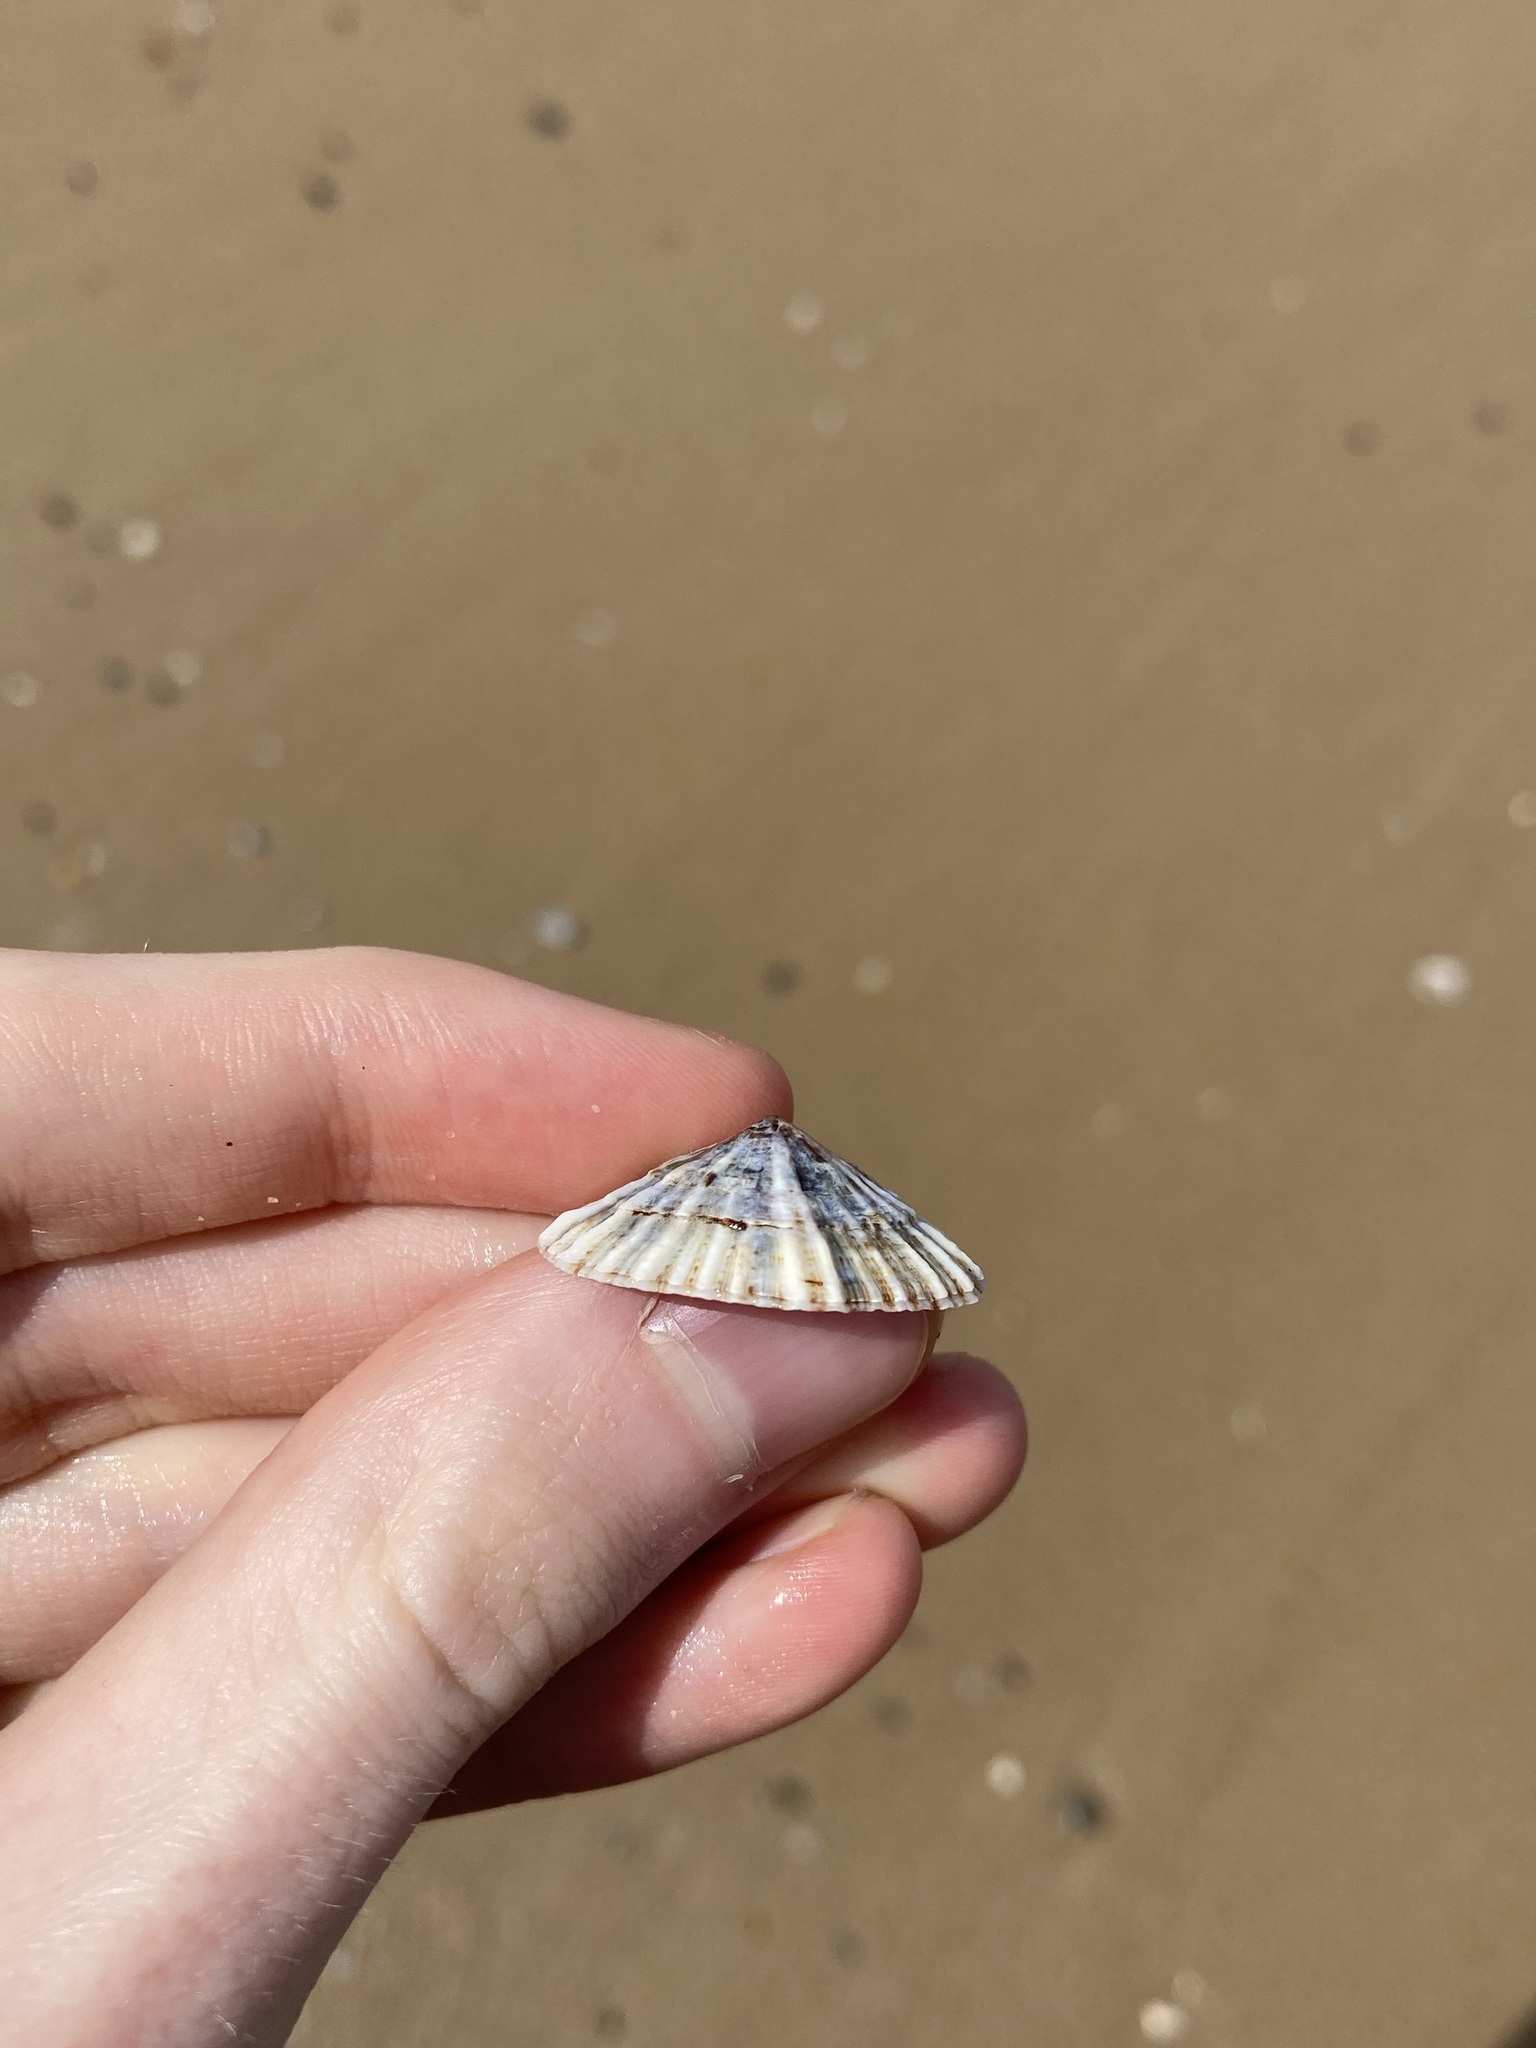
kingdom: Animalia
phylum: Mollusca
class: Gastropoda
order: Siphonariida
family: Siphonariidae
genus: Siphonaria
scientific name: Siphonaria denticulata
